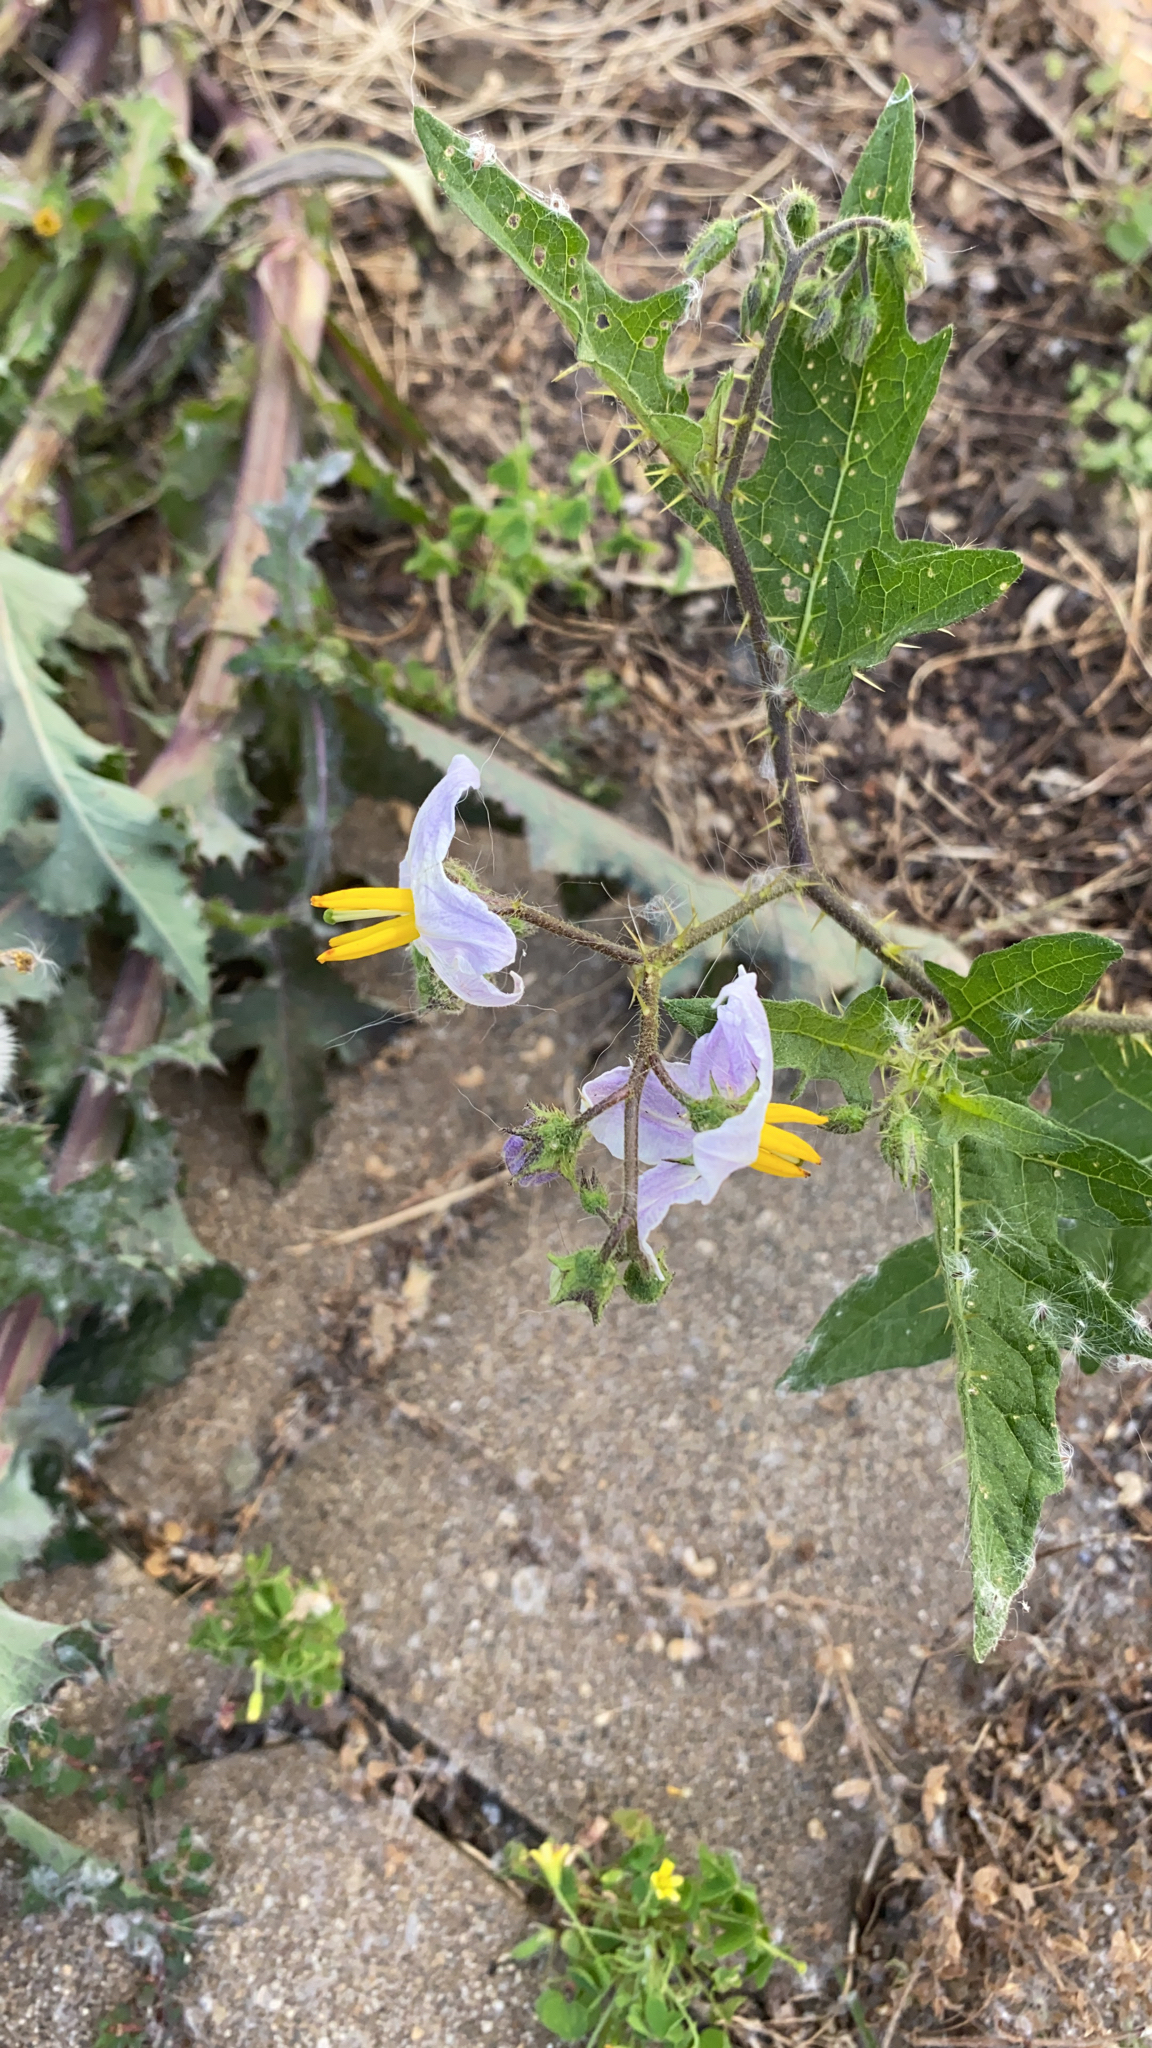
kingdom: Plantae
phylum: Tracheophyta
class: Magnoliopsida
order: Solanales
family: Solanaceae
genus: Solanum
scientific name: Solanum carolinense
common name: Horse-nettle
